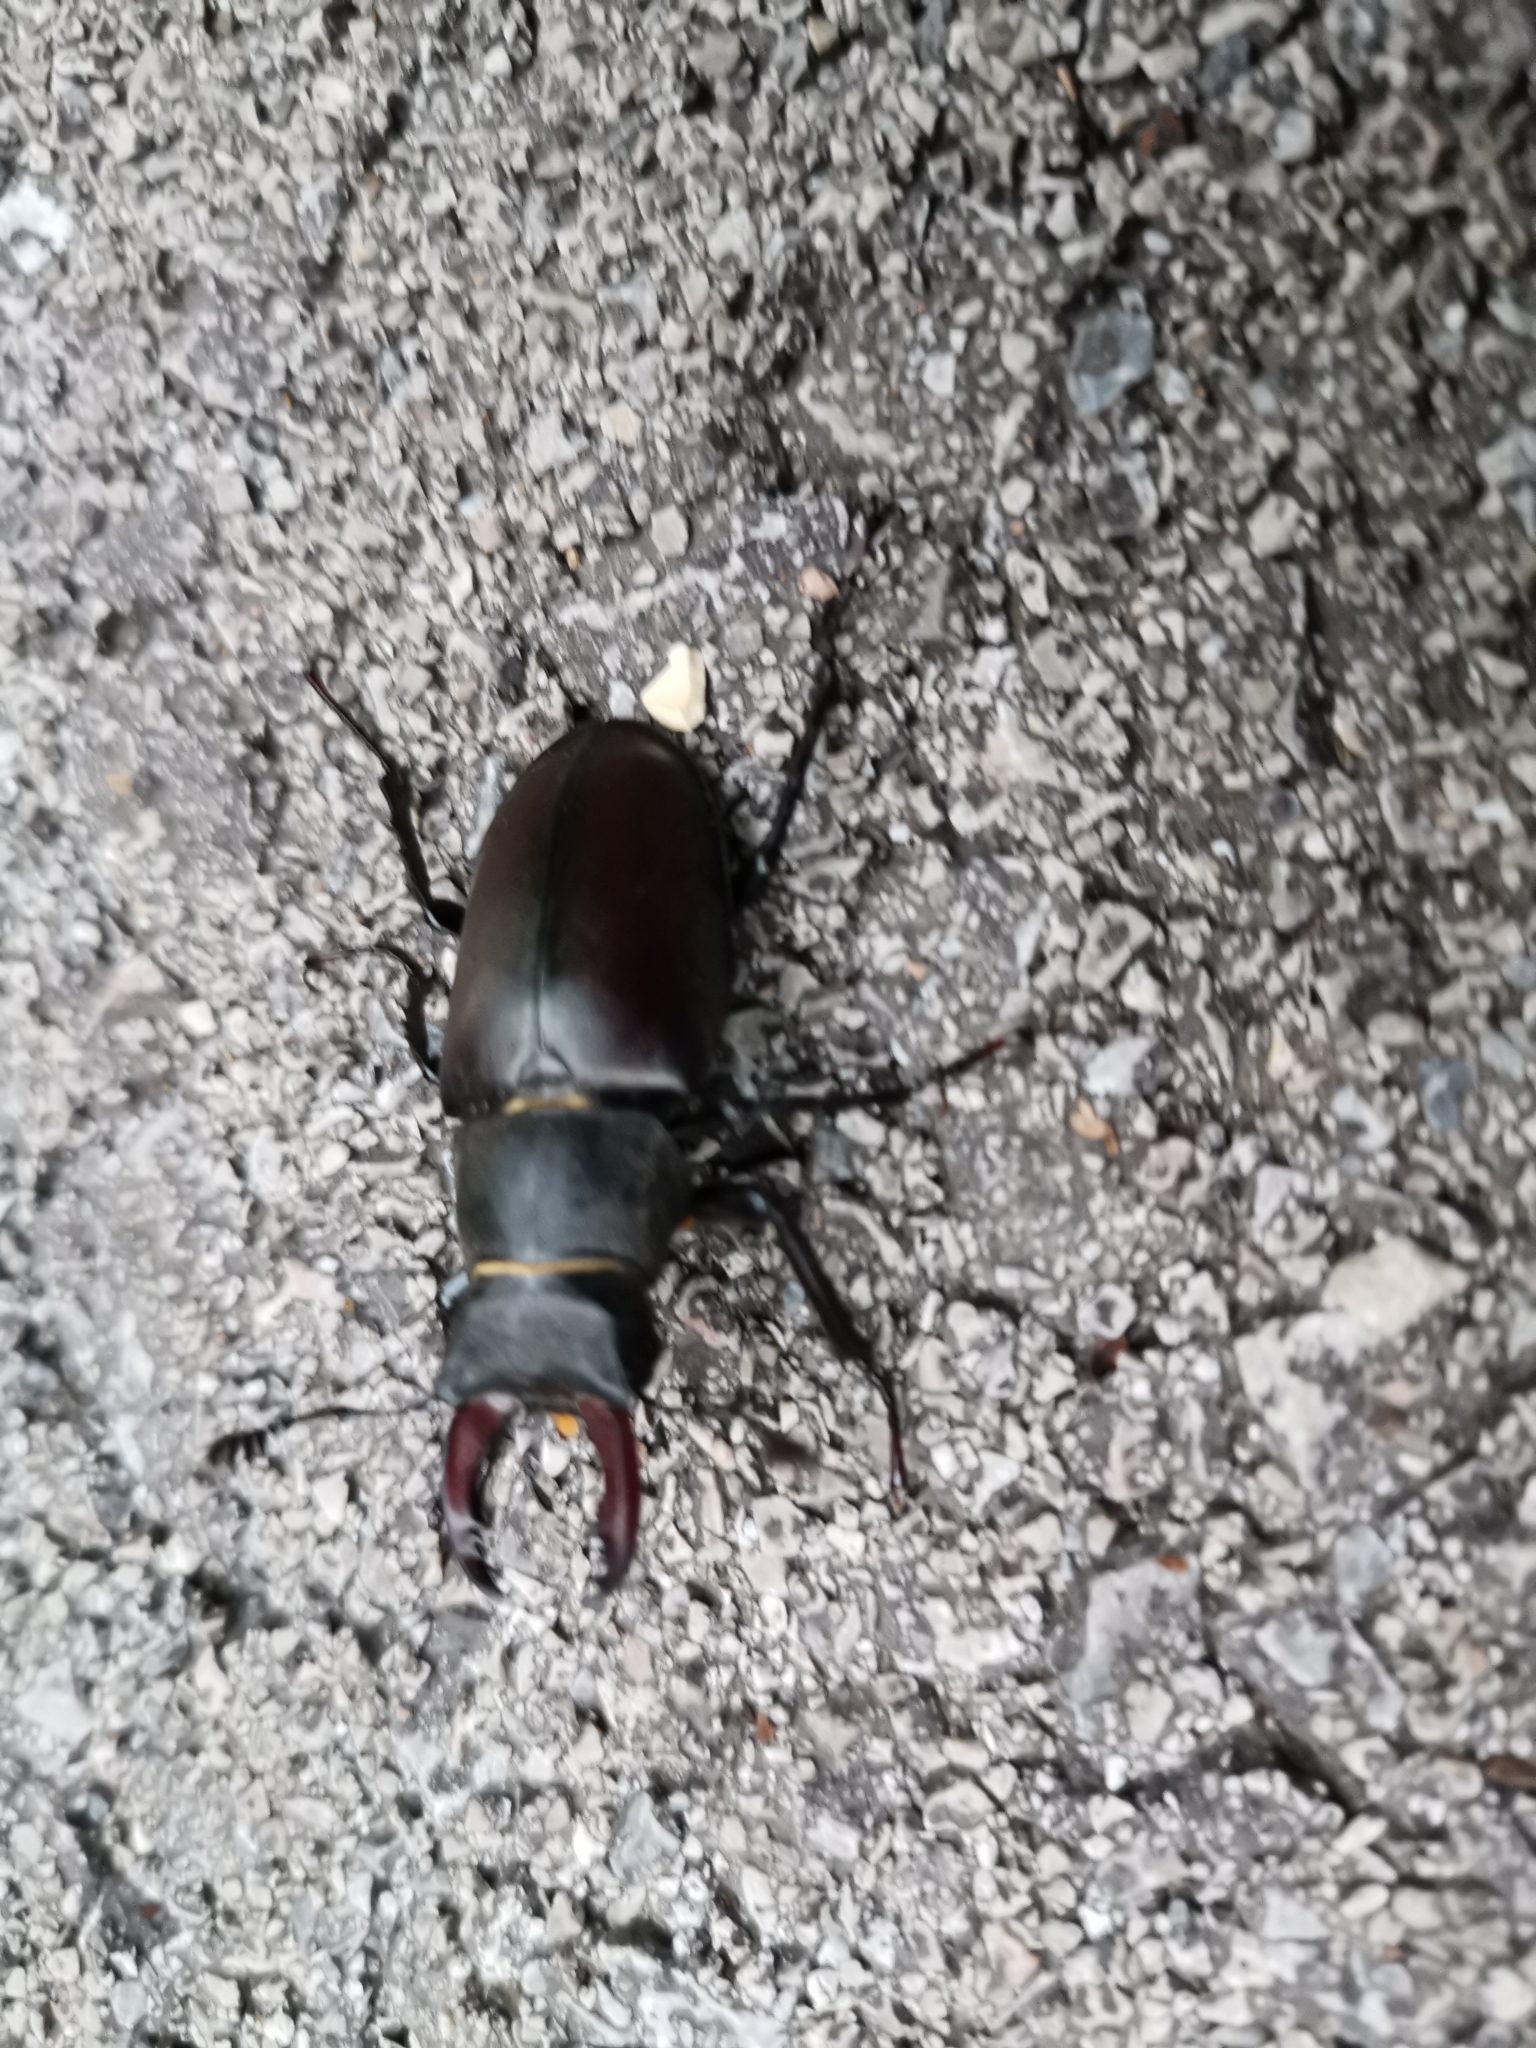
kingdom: Animalia
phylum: Arthropoda
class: Insecta
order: Coleoptera
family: Lucanidae
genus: Lucanus
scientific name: Lucanus cervus
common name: Stag beetle
